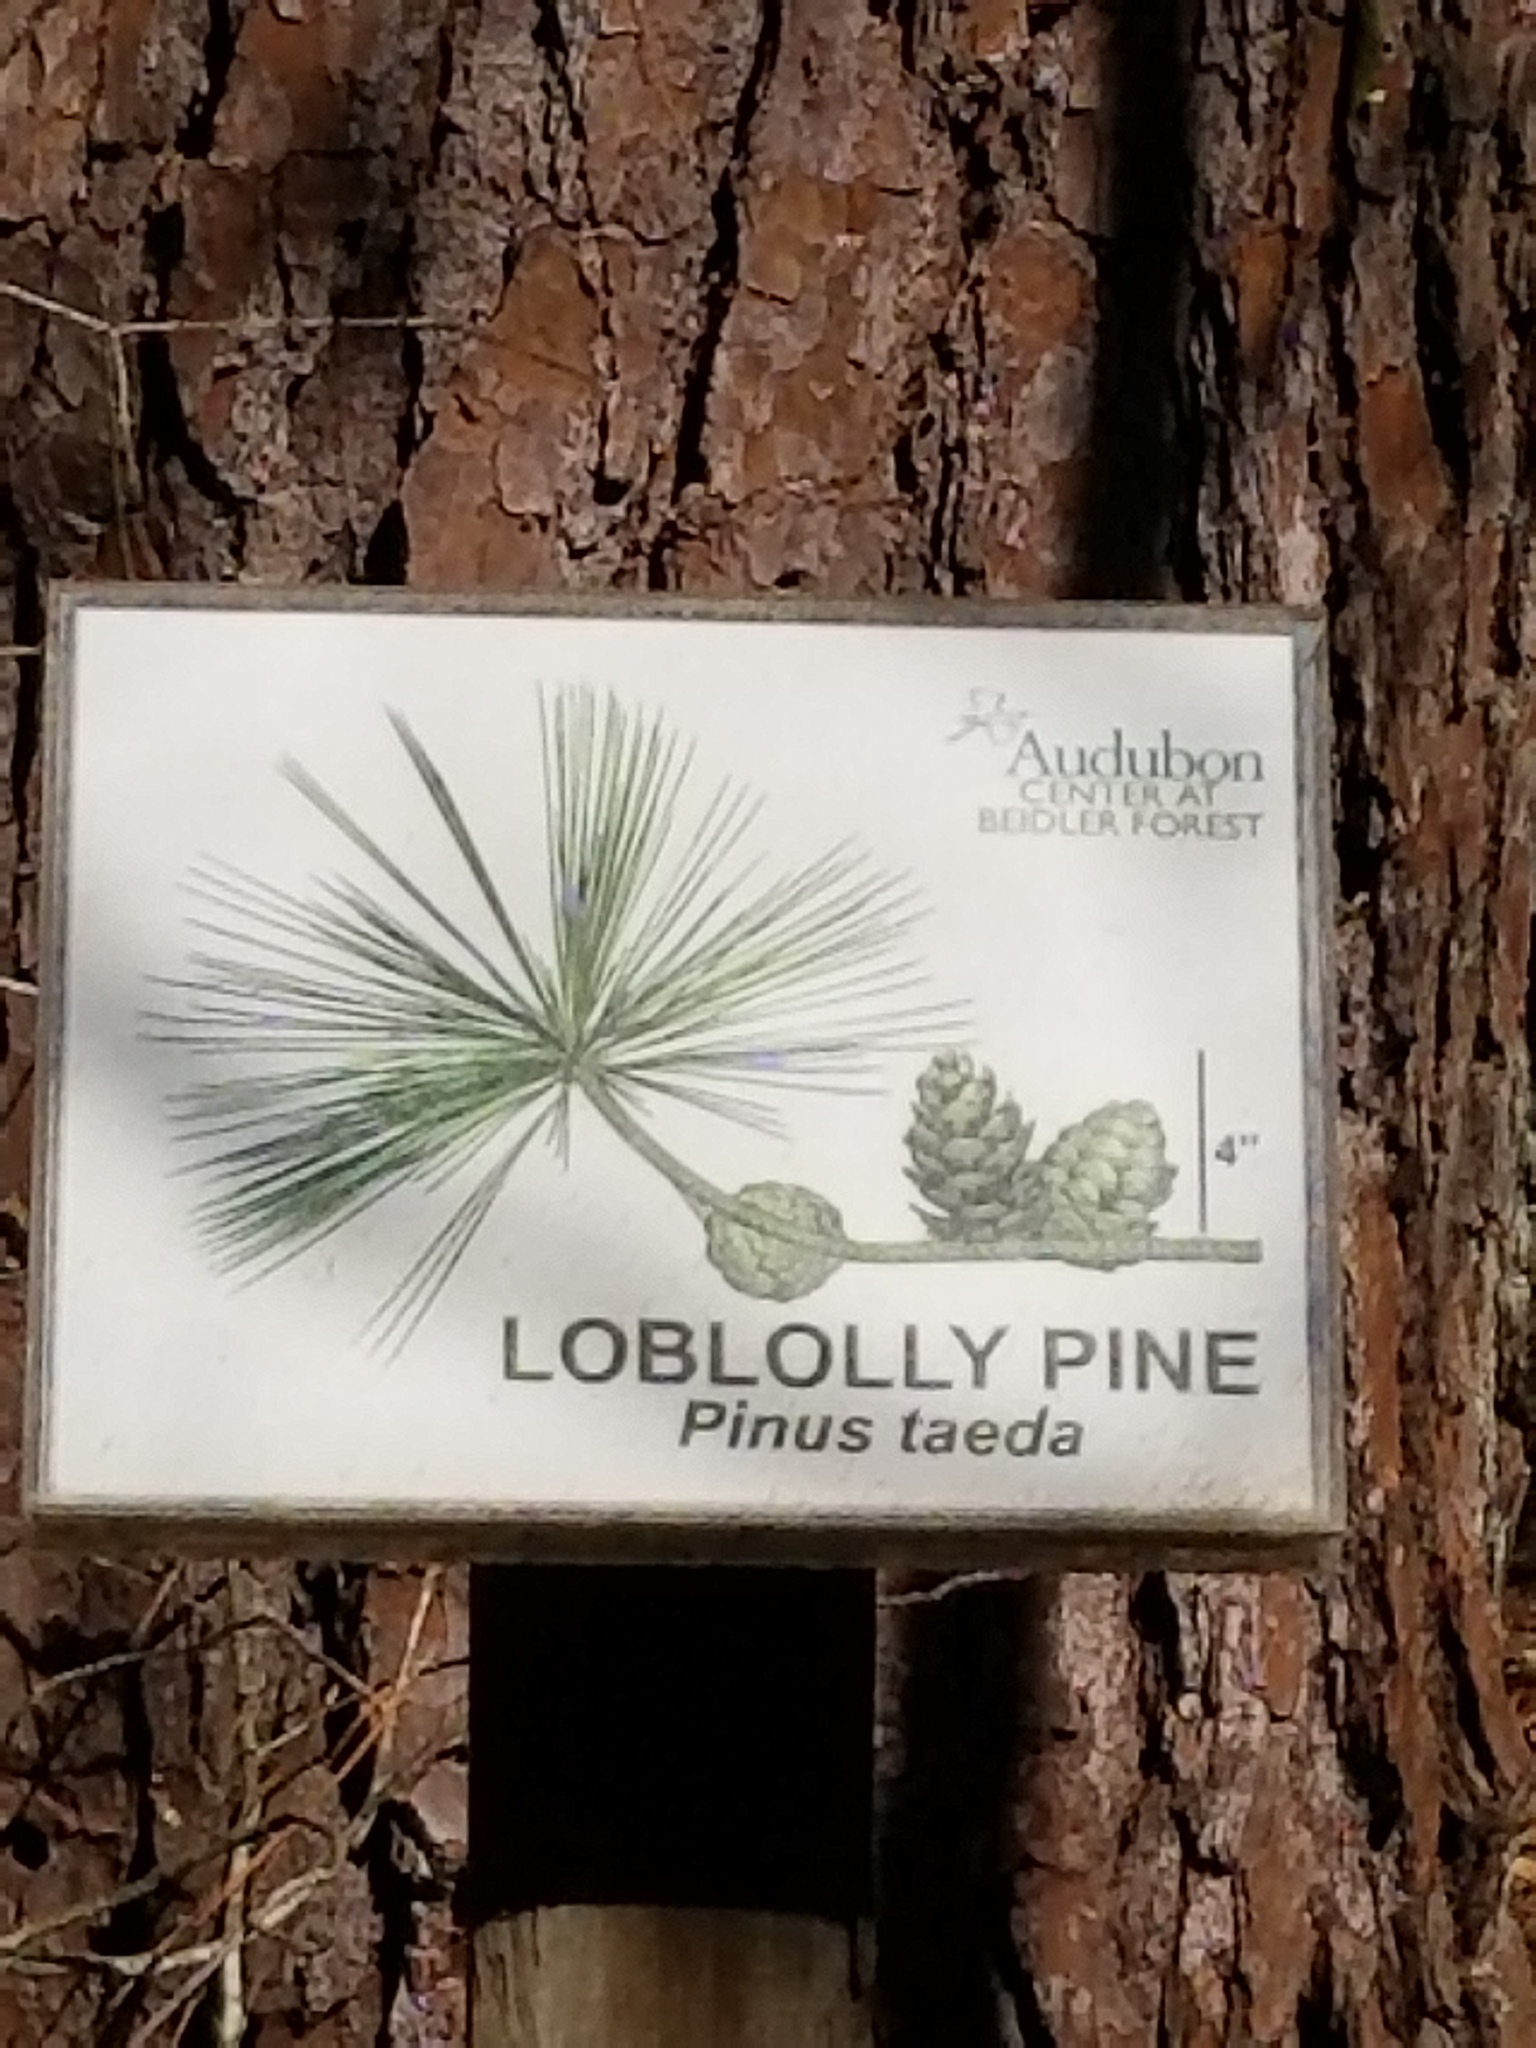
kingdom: Plantae
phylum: Tracheophyta
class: Pinopsida
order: Pinales
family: Pinaceae
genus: Pinus
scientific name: Pinus taeda
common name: Loblolly pine
